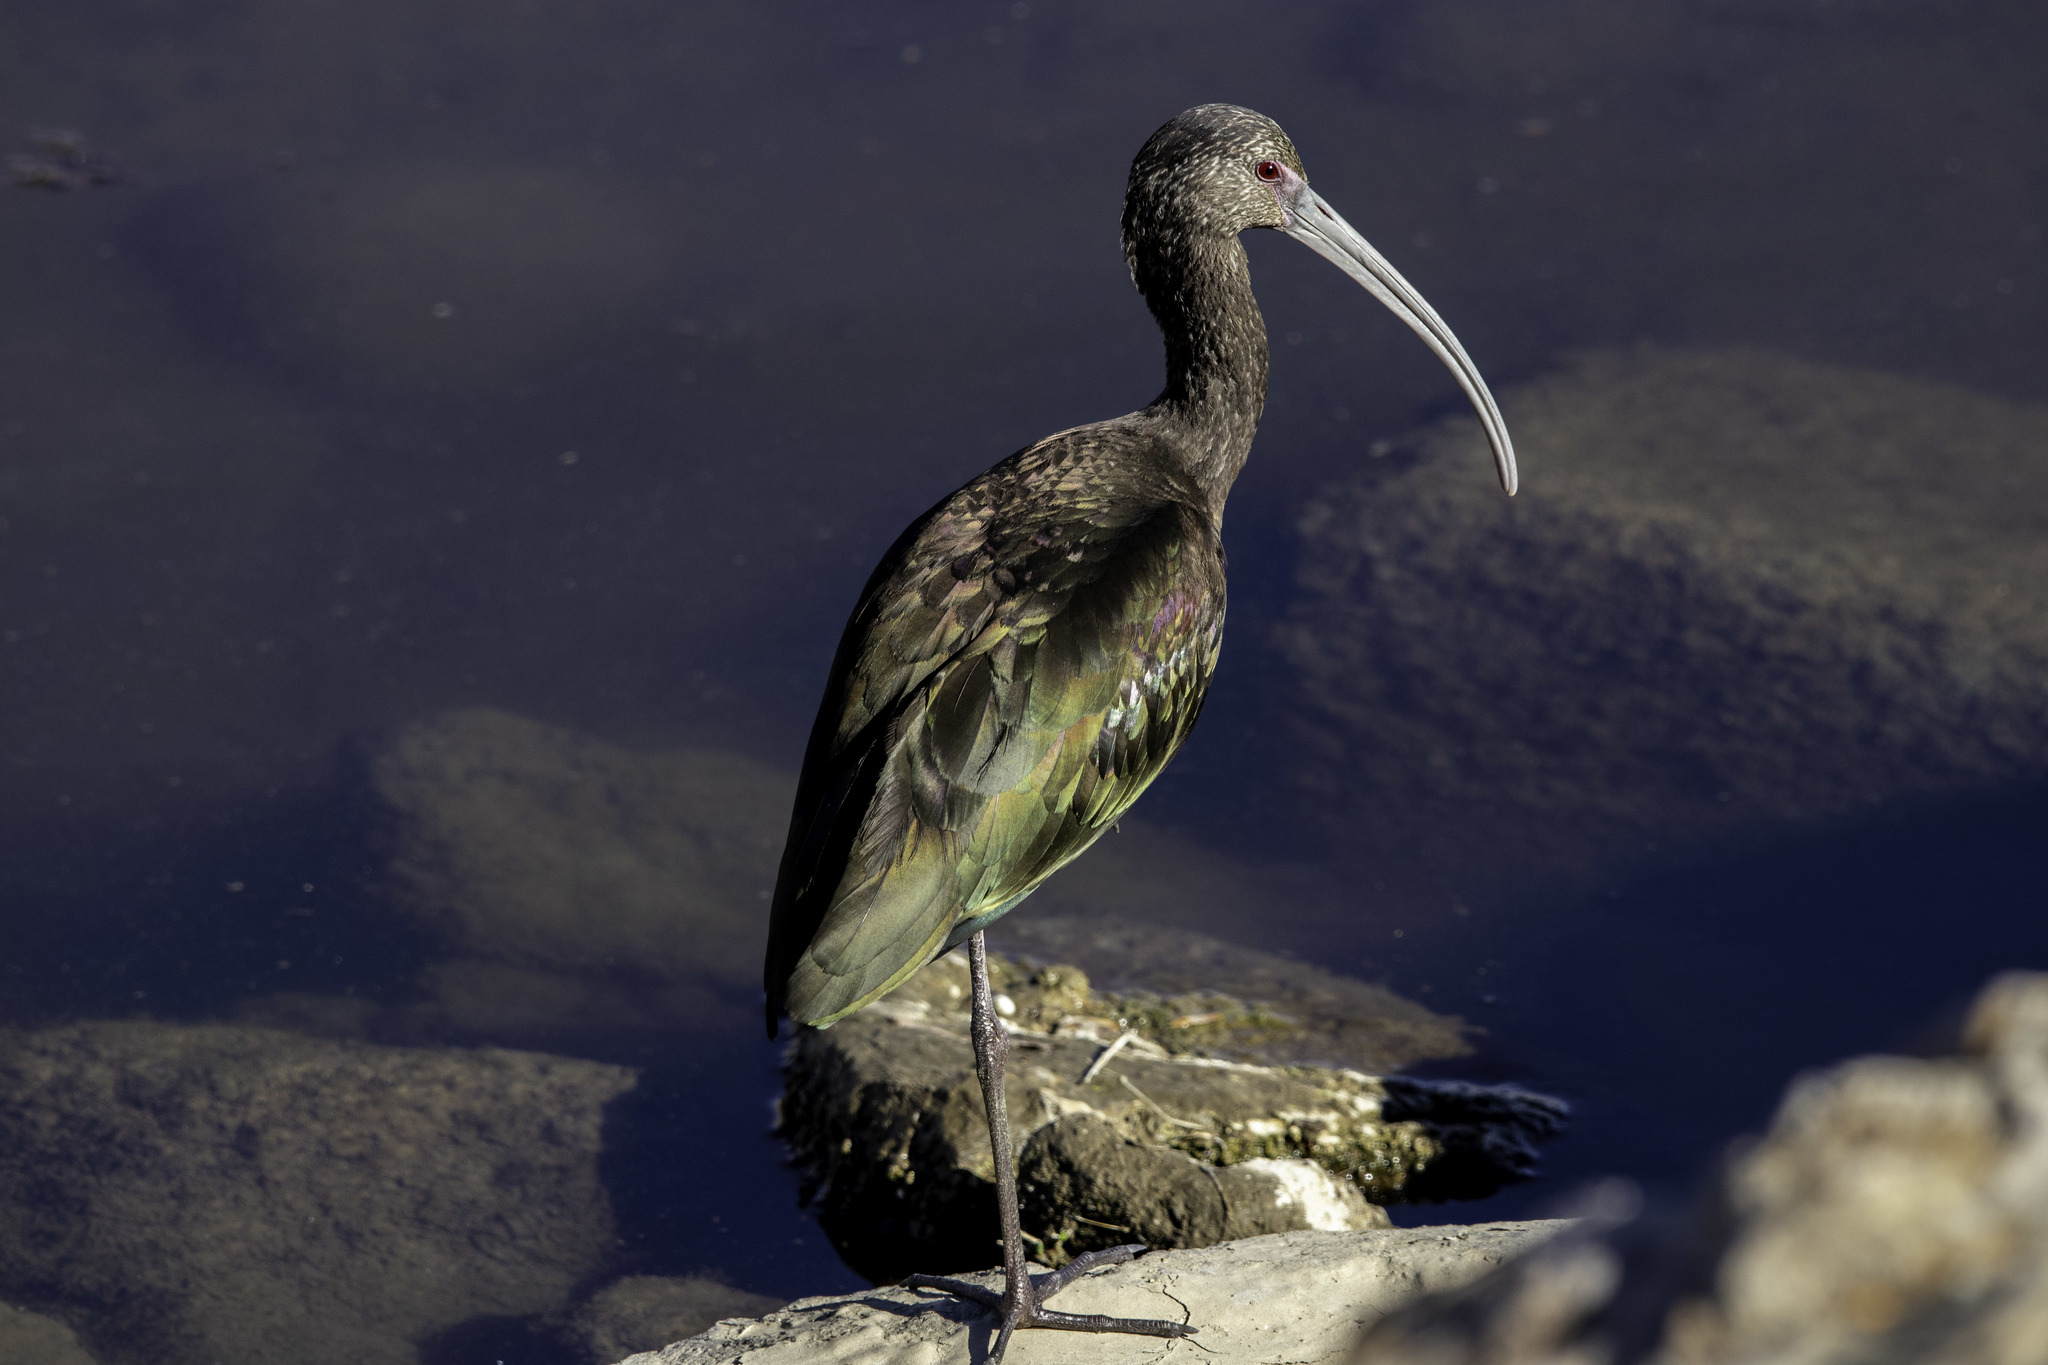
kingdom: Animalia
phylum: Chordata
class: Aves
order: Pelecaniformes
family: Threskiornithidae
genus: Plegadis
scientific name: Plegadis chihi
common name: White-faced ibis
